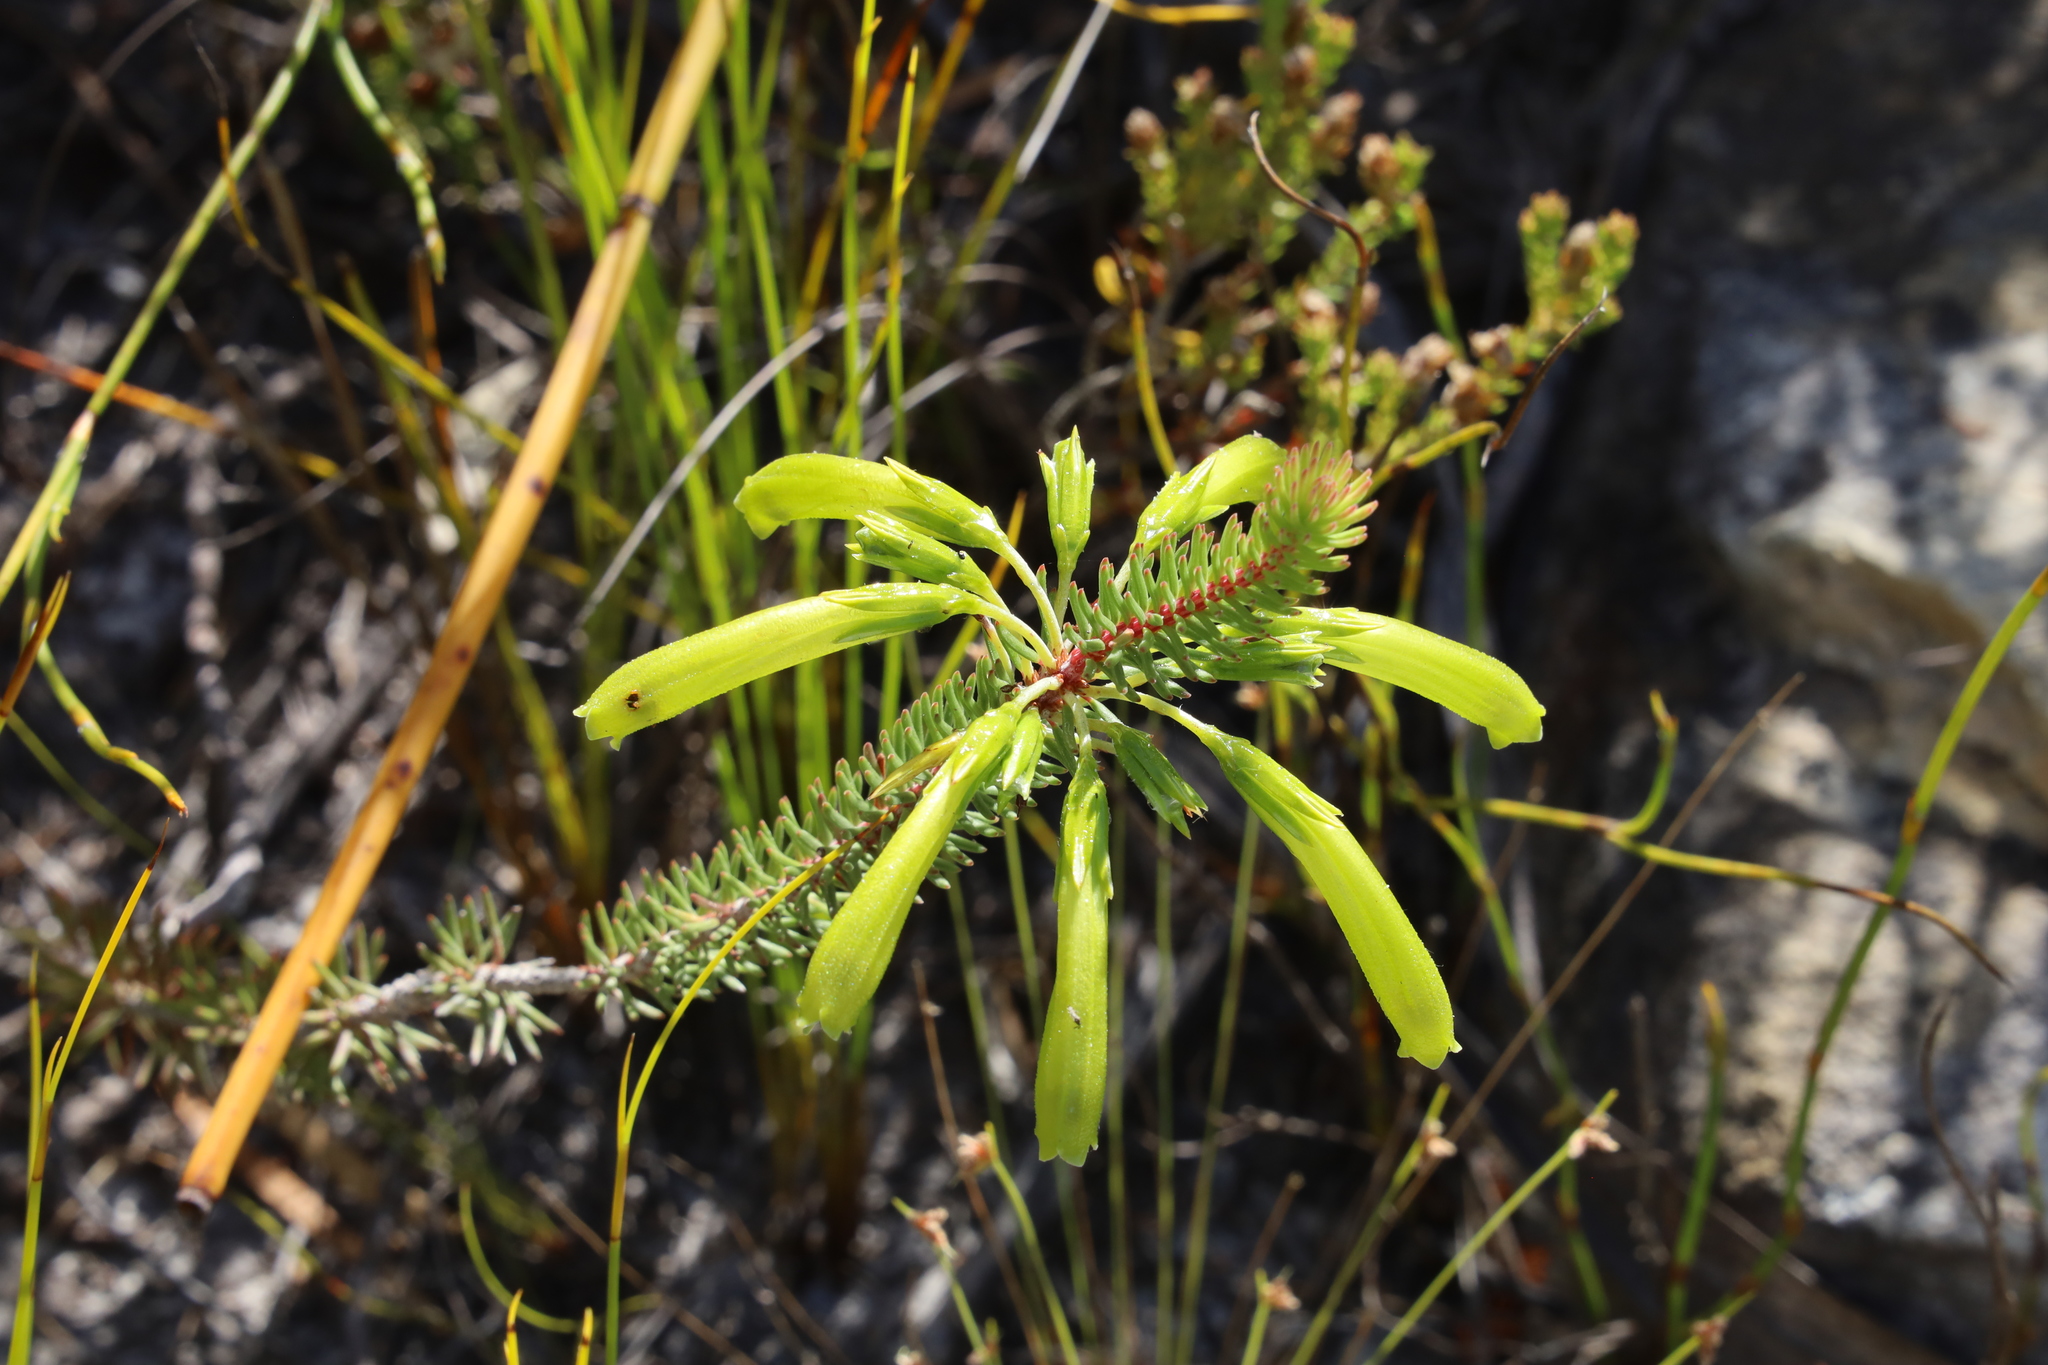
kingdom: Plantae
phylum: Tracheophyta
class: Magnoliopsida
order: Ericales
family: Ericaceae
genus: Erica
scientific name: Erica thomae
